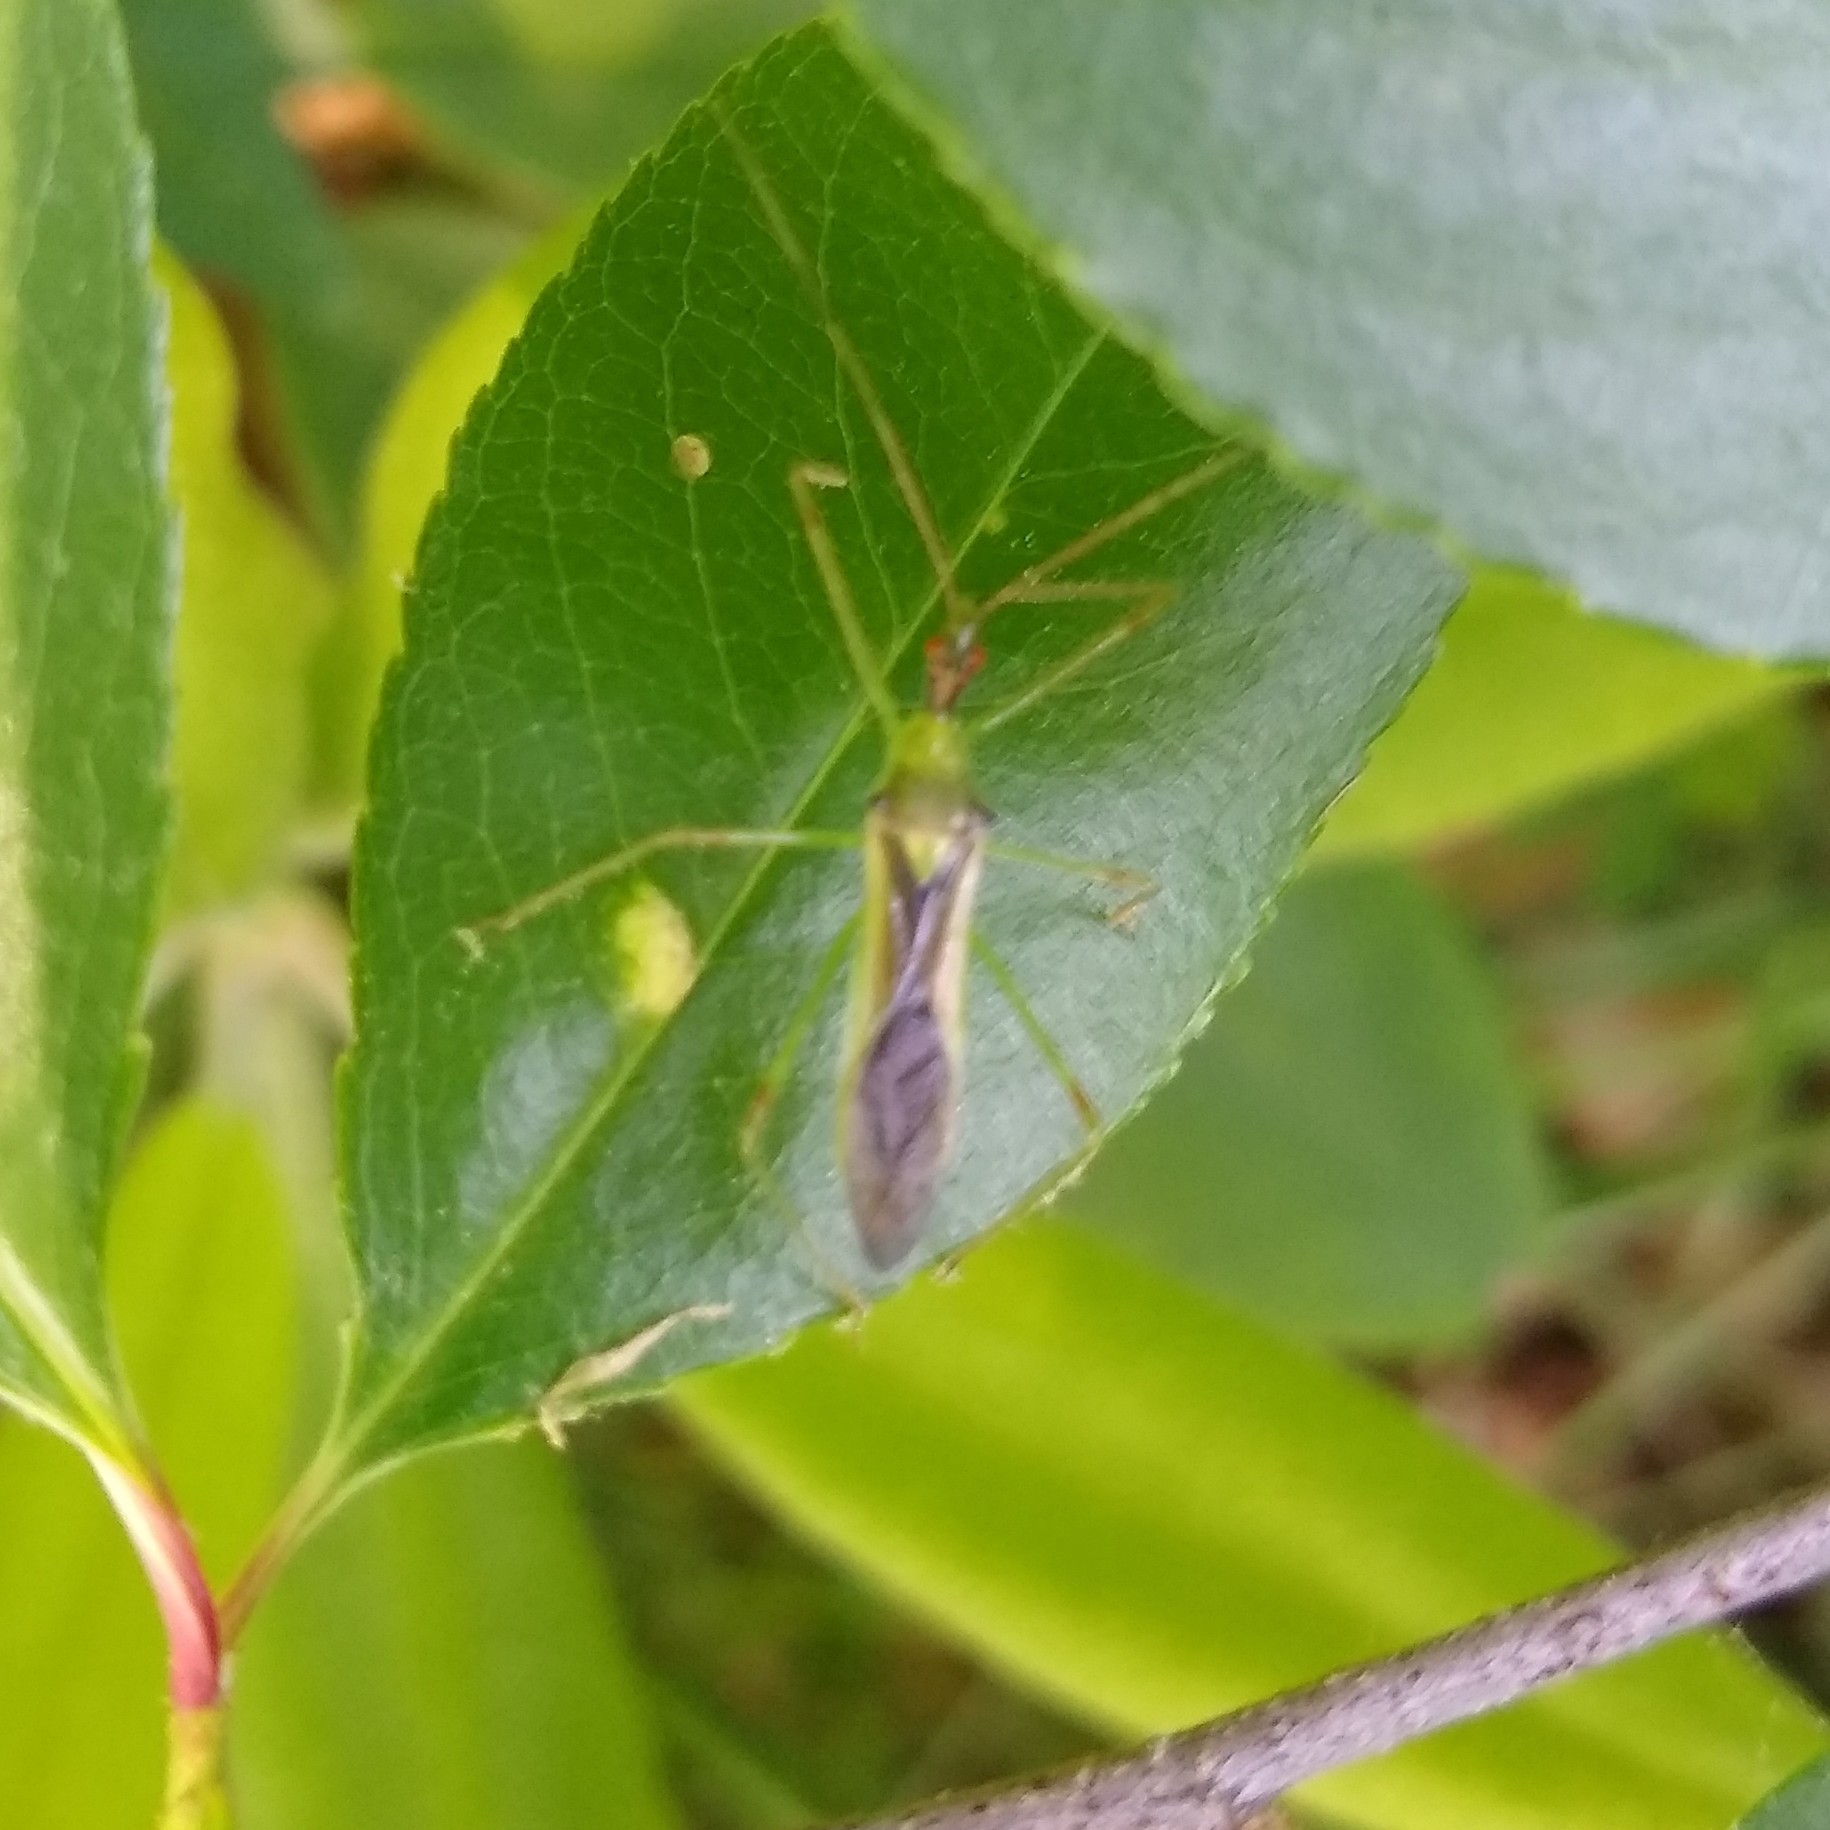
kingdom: Animalia
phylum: Arthropoda
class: Insecta
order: Hemiptera
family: Reduviidae
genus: Zelus
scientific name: Zelus luridus
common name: Pale green assassin bug
